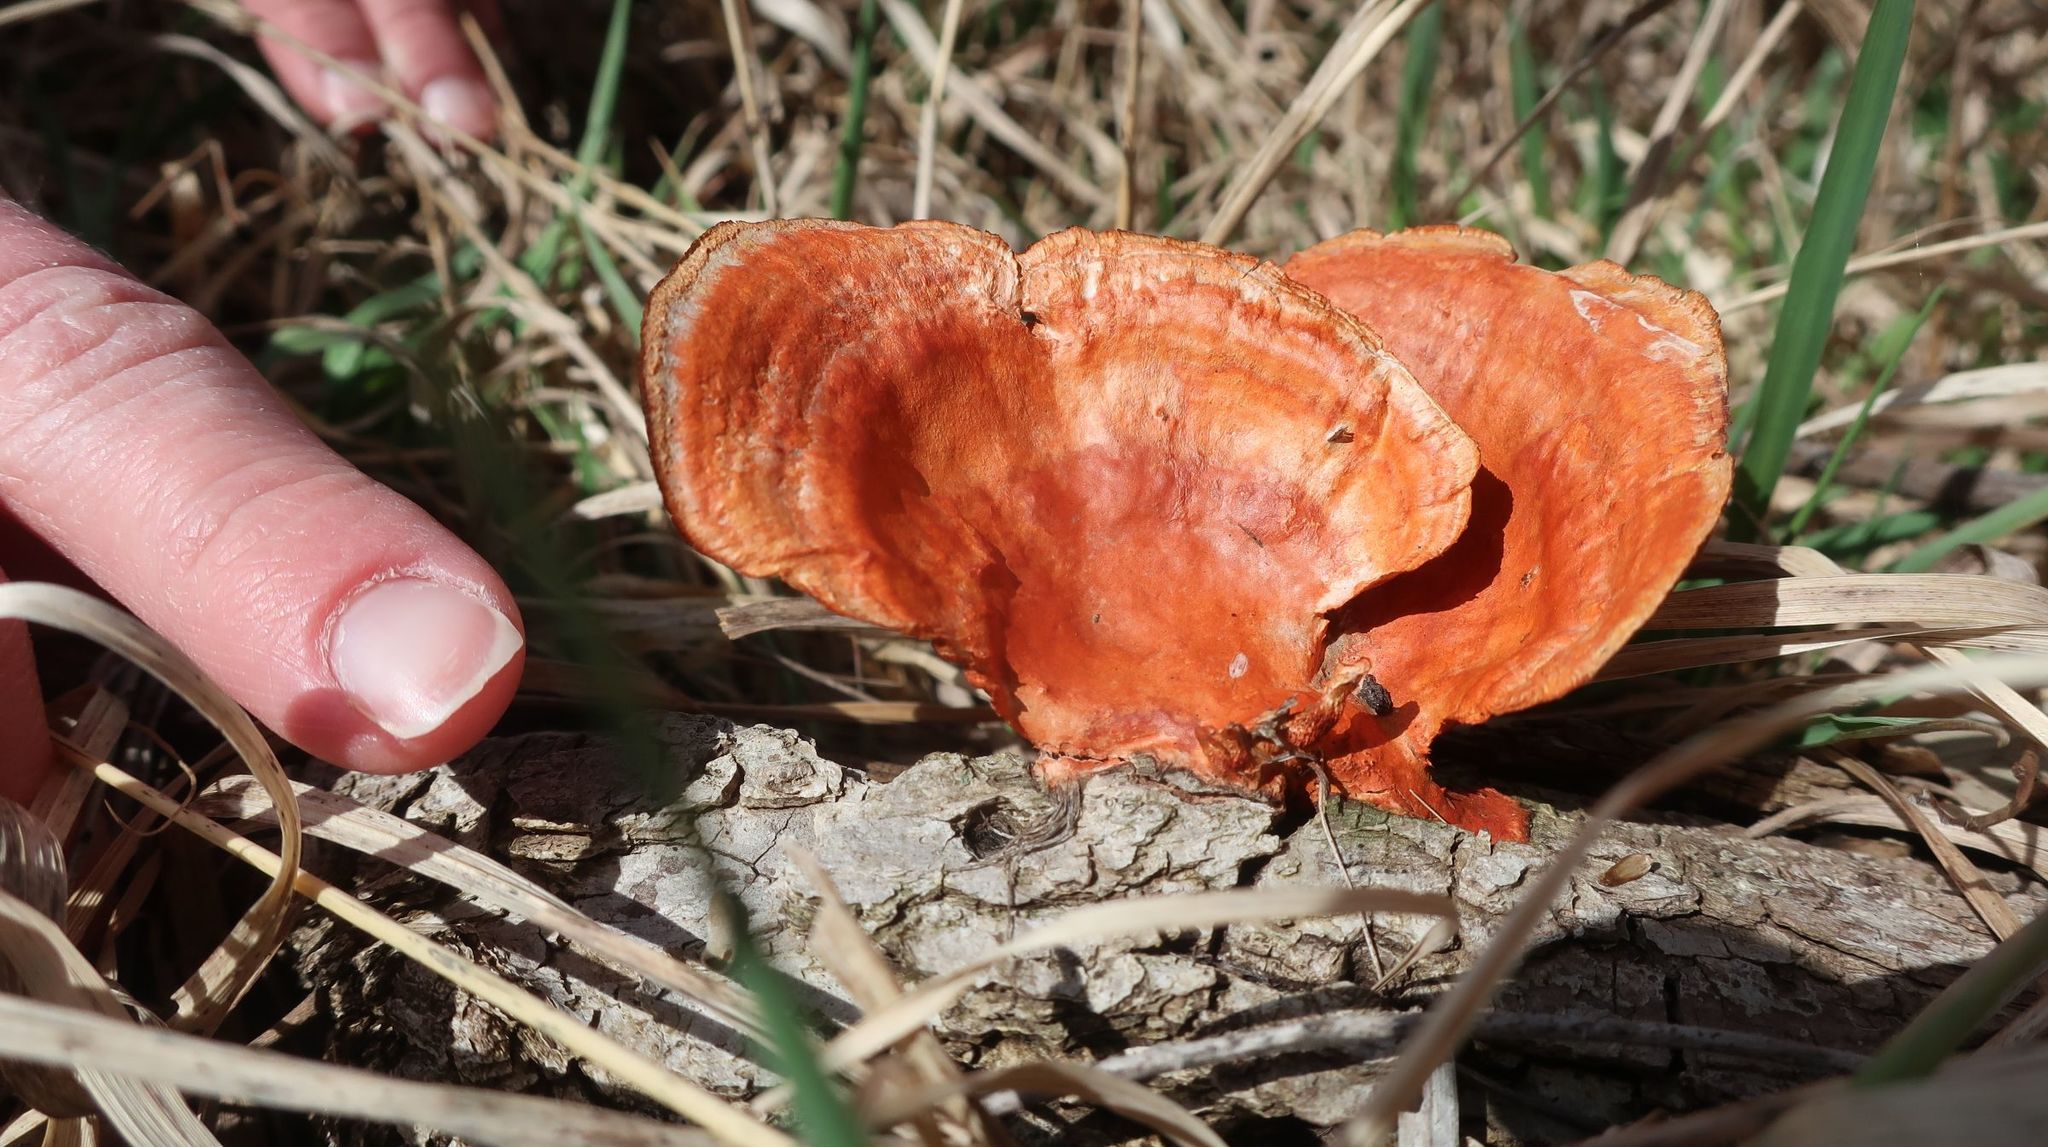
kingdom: Fungi
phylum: Basidiomycota
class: Agaricomycetes
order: Polyporales
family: Polyporaceae
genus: Trametes
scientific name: Trametes cinnabarina
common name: Northern cinnabar polypore
